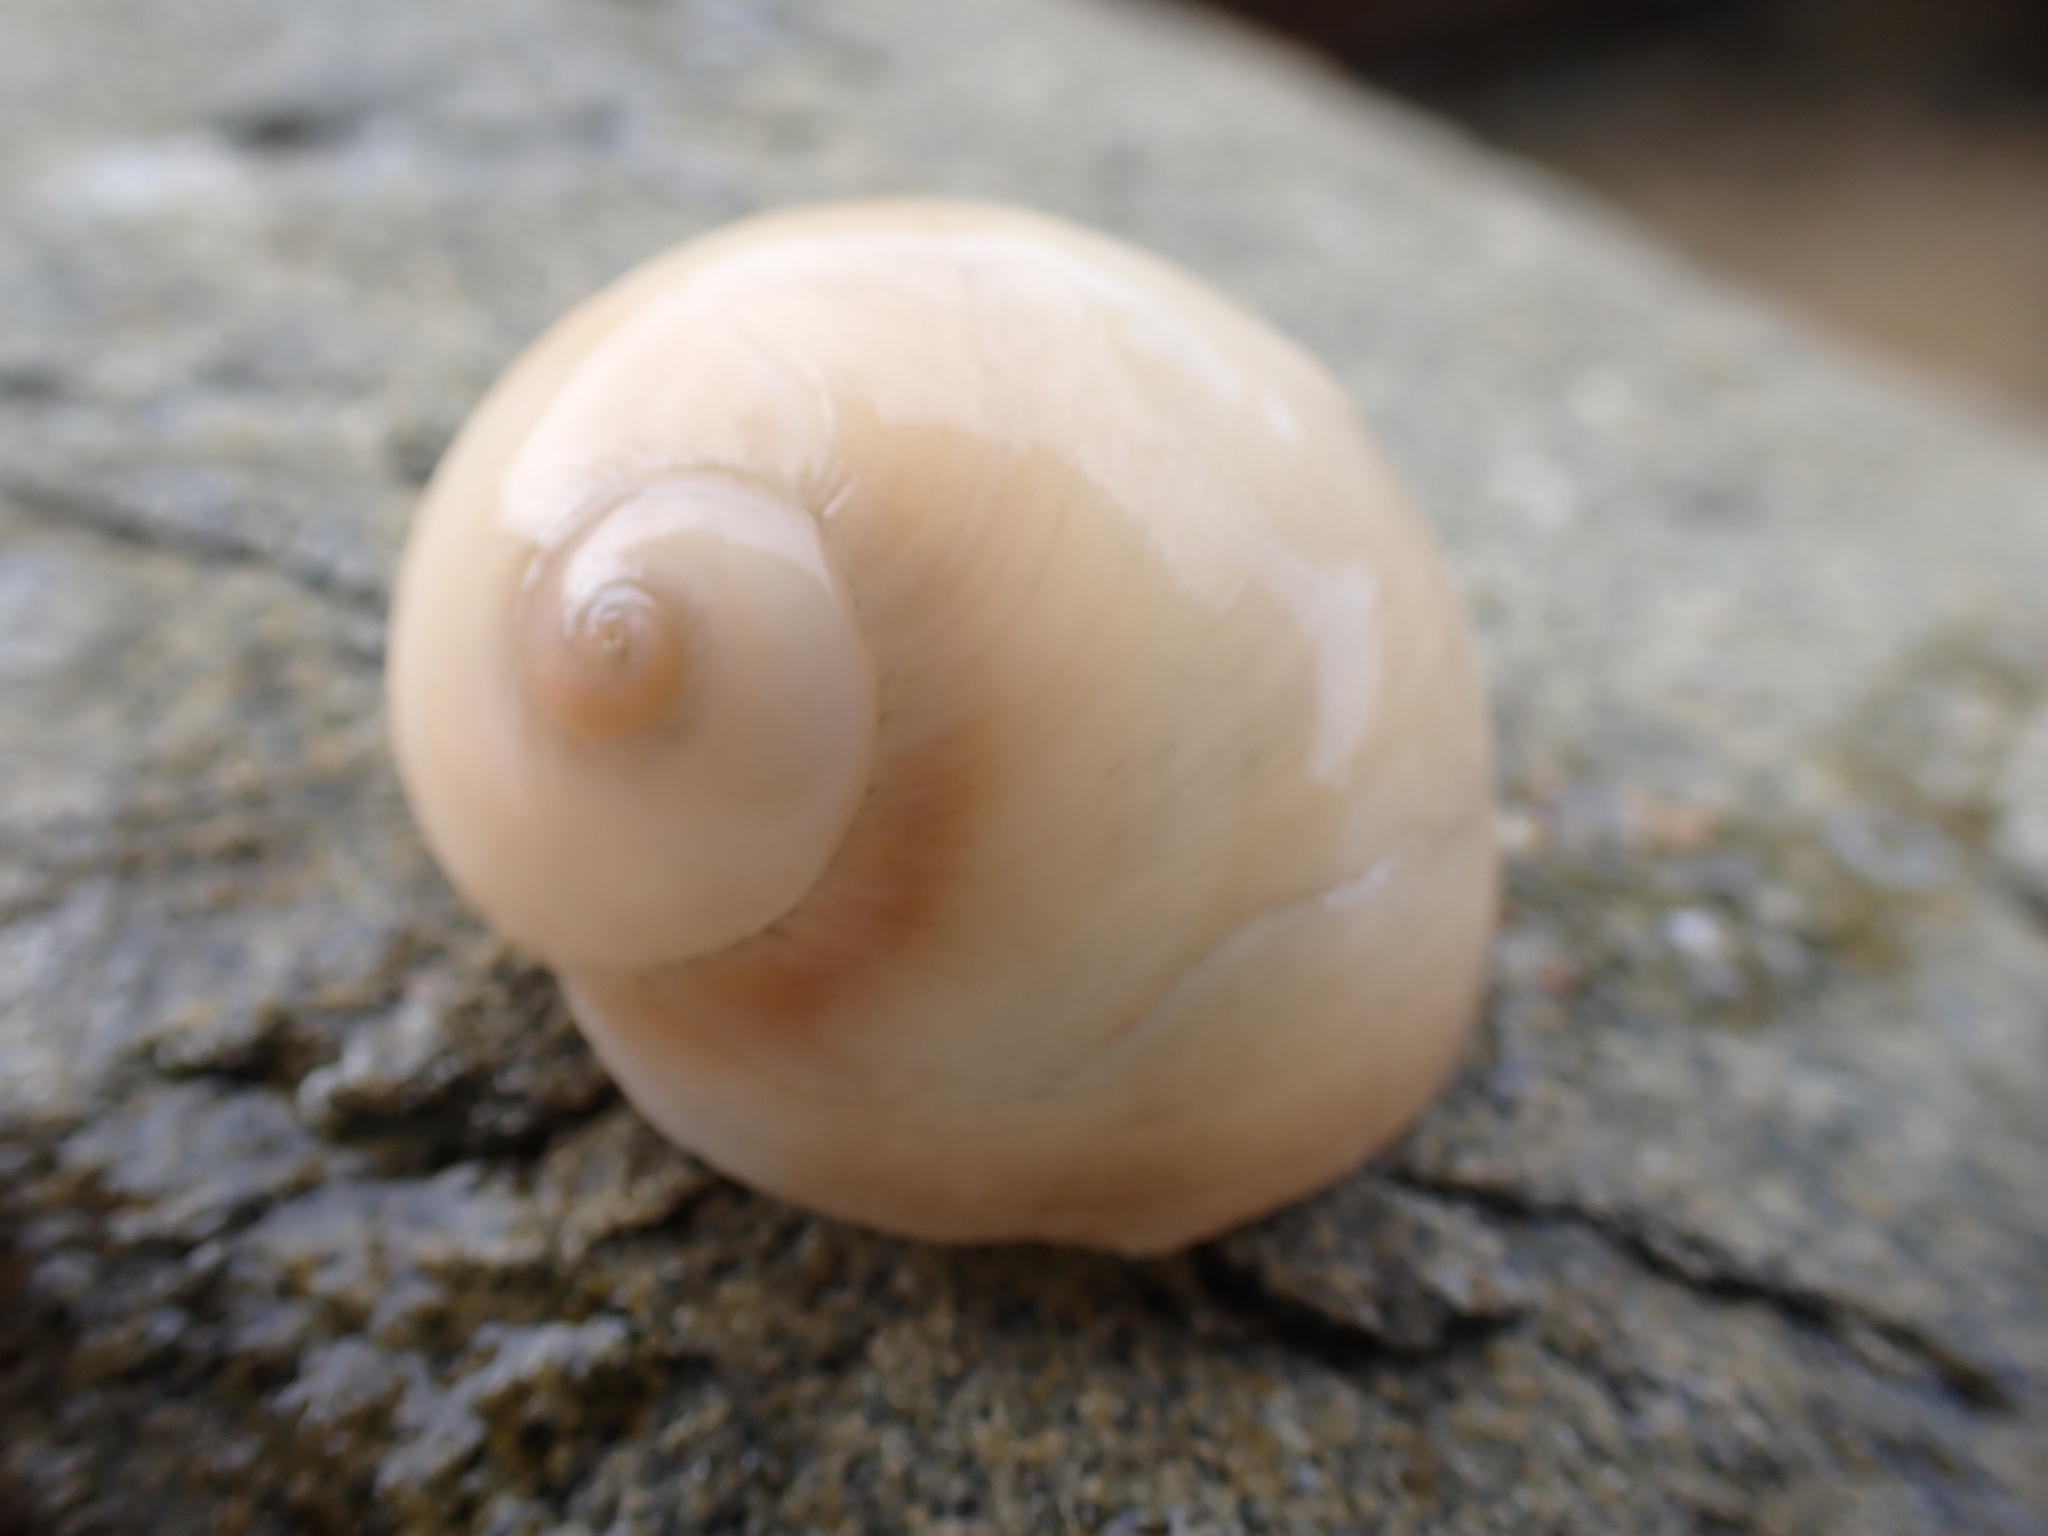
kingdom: Animalia
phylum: Mollusca
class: Gastropoda
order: Littorinimorpha
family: Naticidae
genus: Neverita
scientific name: Neverita didyma
